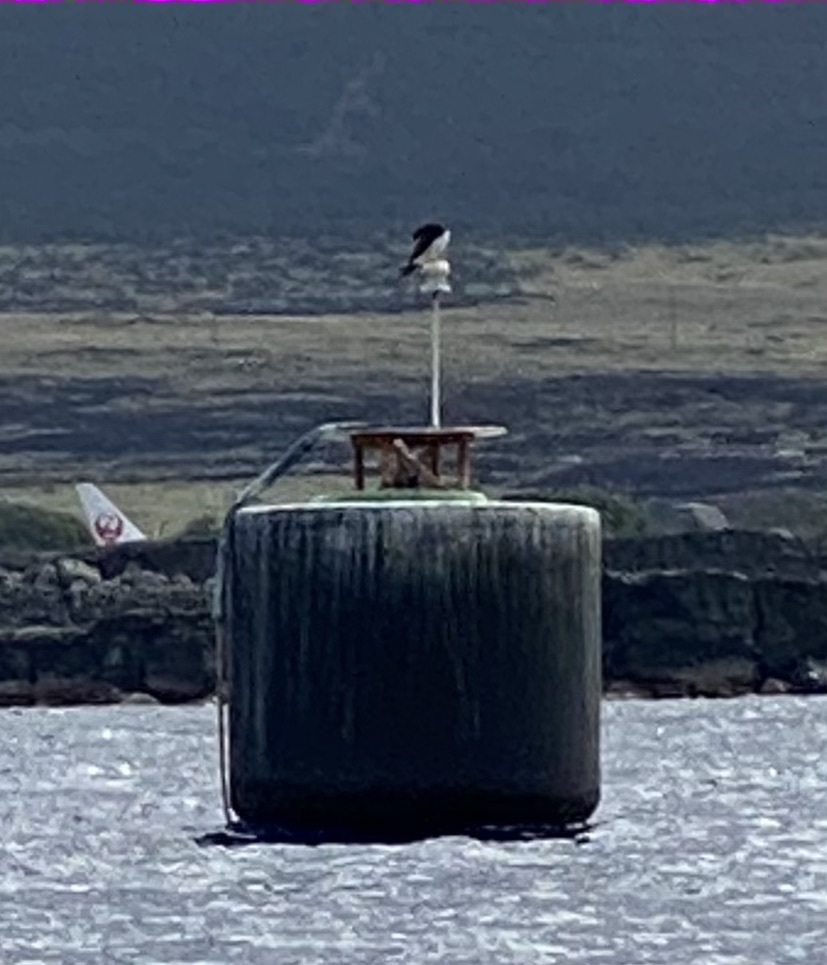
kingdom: Animalia
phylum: Chordata
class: Aves
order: Suliformes
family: Sulidae
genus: Sula
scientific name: Sula leucogaster
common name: Brown booby
